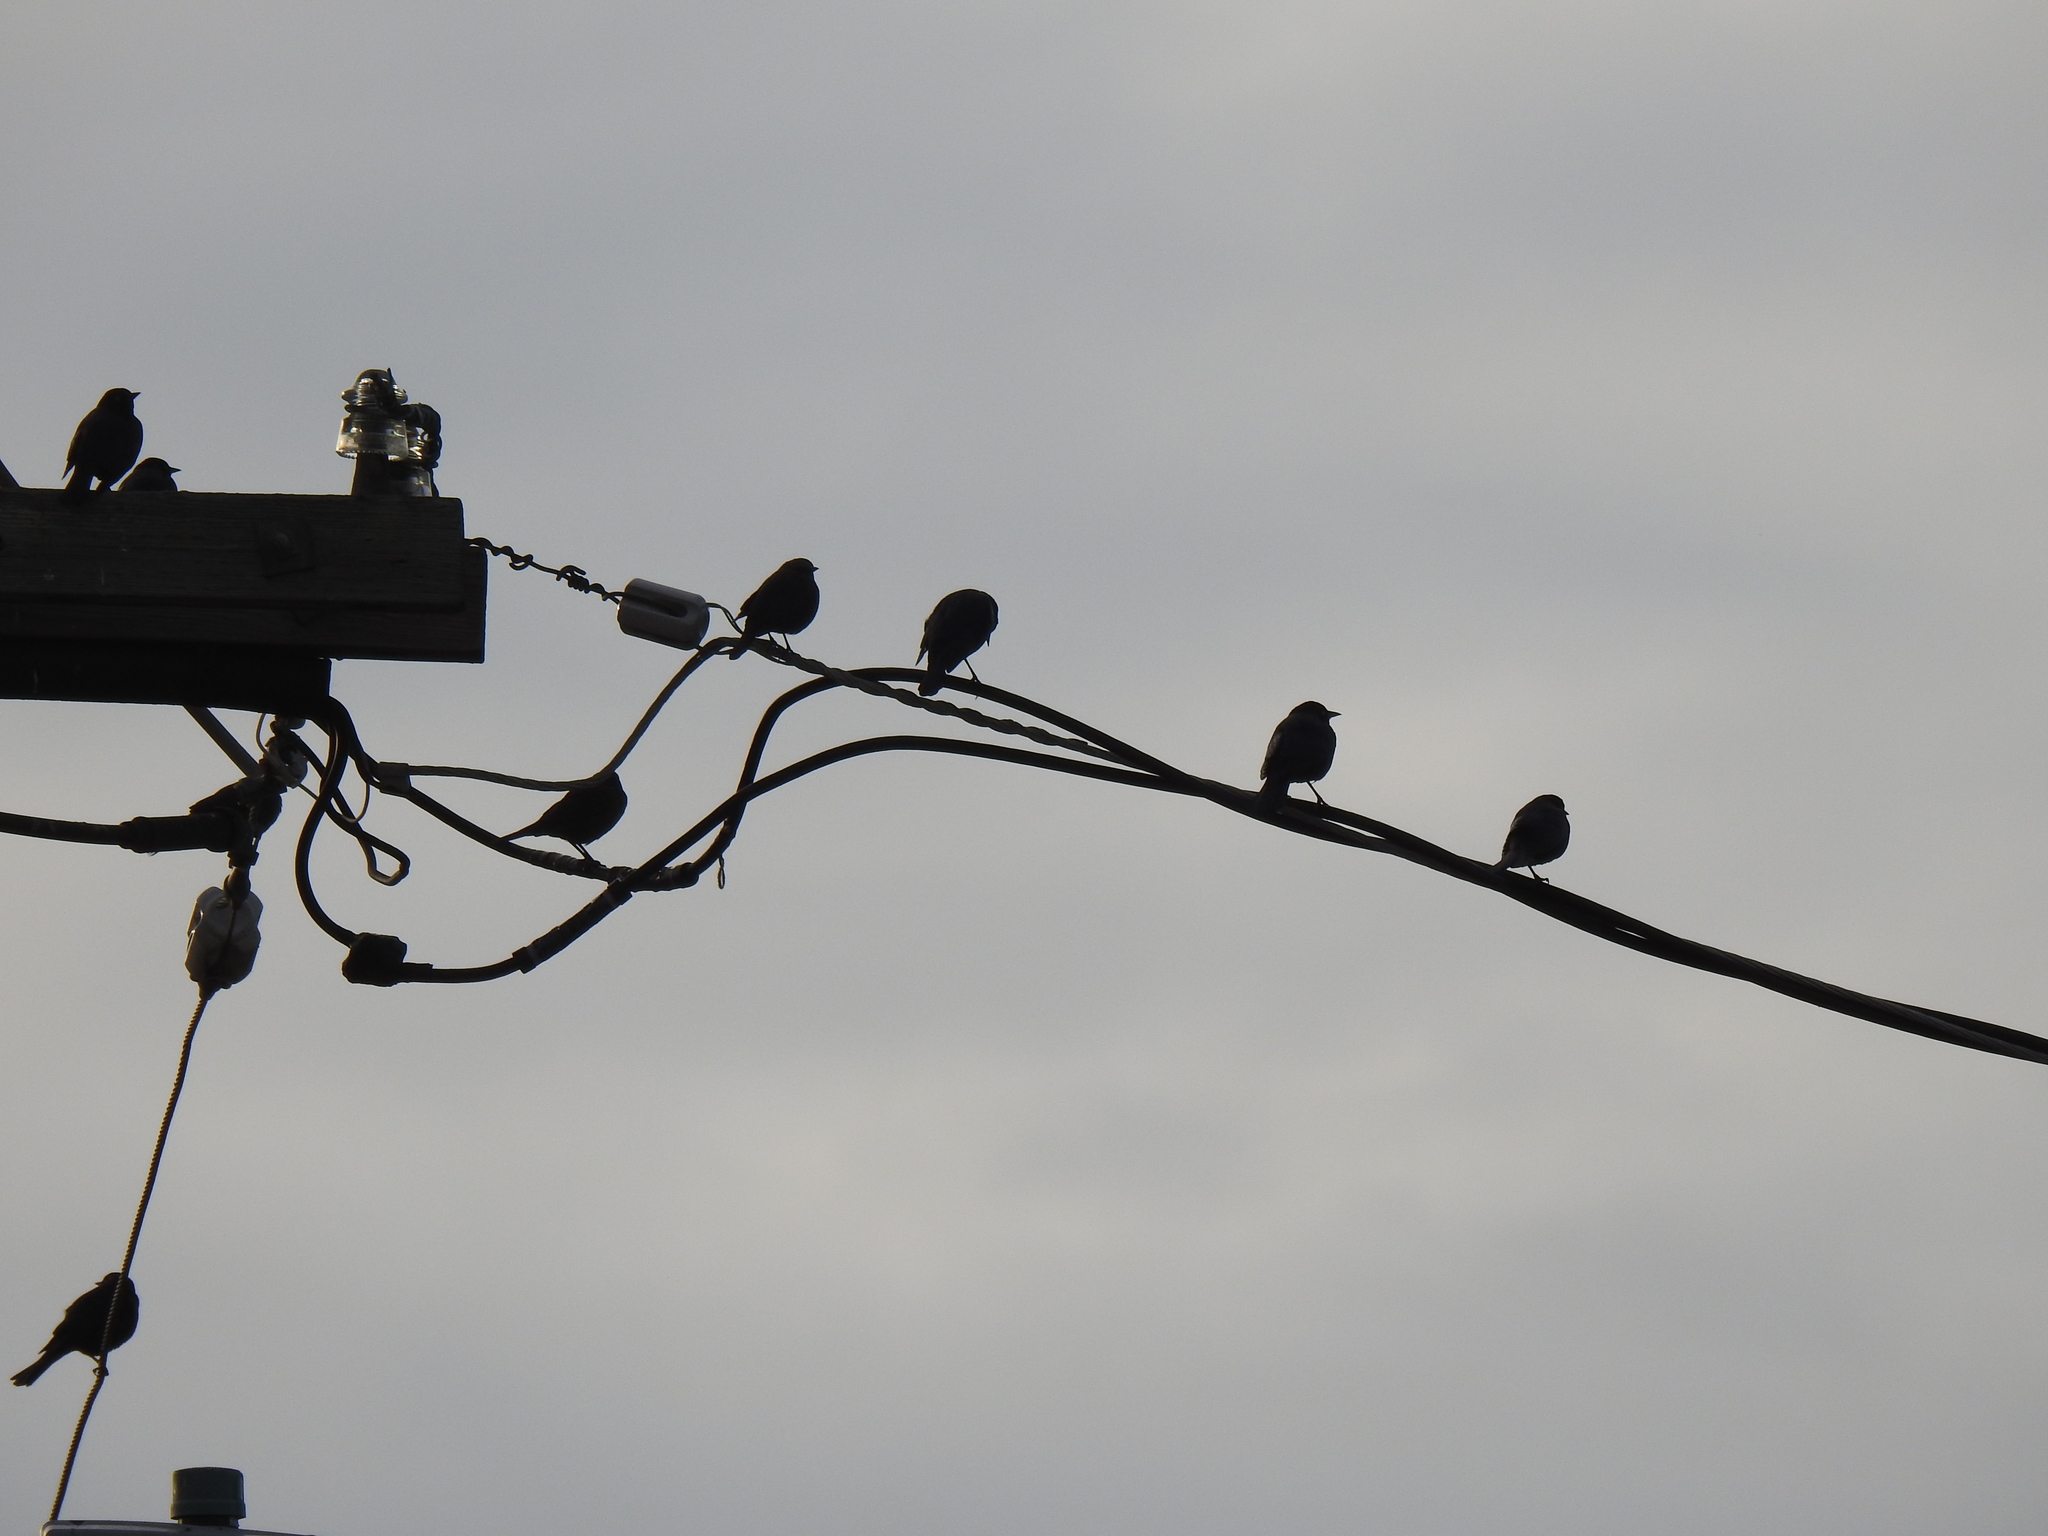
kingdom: Animalia
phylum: Chordata
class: Aves
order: Passeriformes
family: Icteridae
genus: Euphagus
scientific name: Euphagus cyanocephalus
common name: Brewer's blackbird
